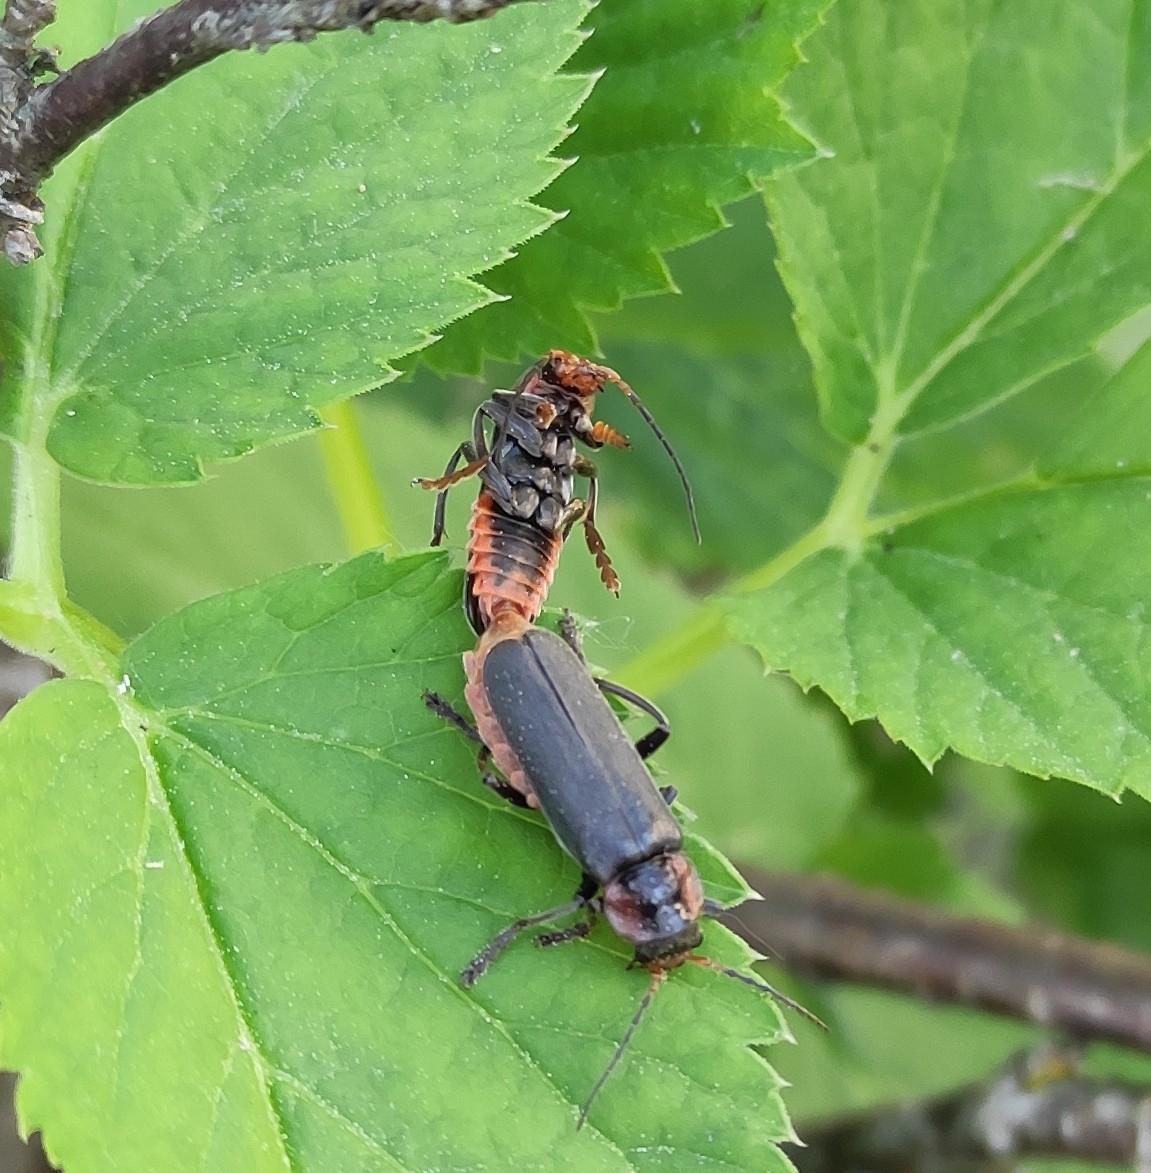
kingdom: Animalia
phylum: Arthropoda
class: Insecta
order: Coleoptera
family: Cantharidae
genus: Cantharis
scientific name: Cantharis fusca
